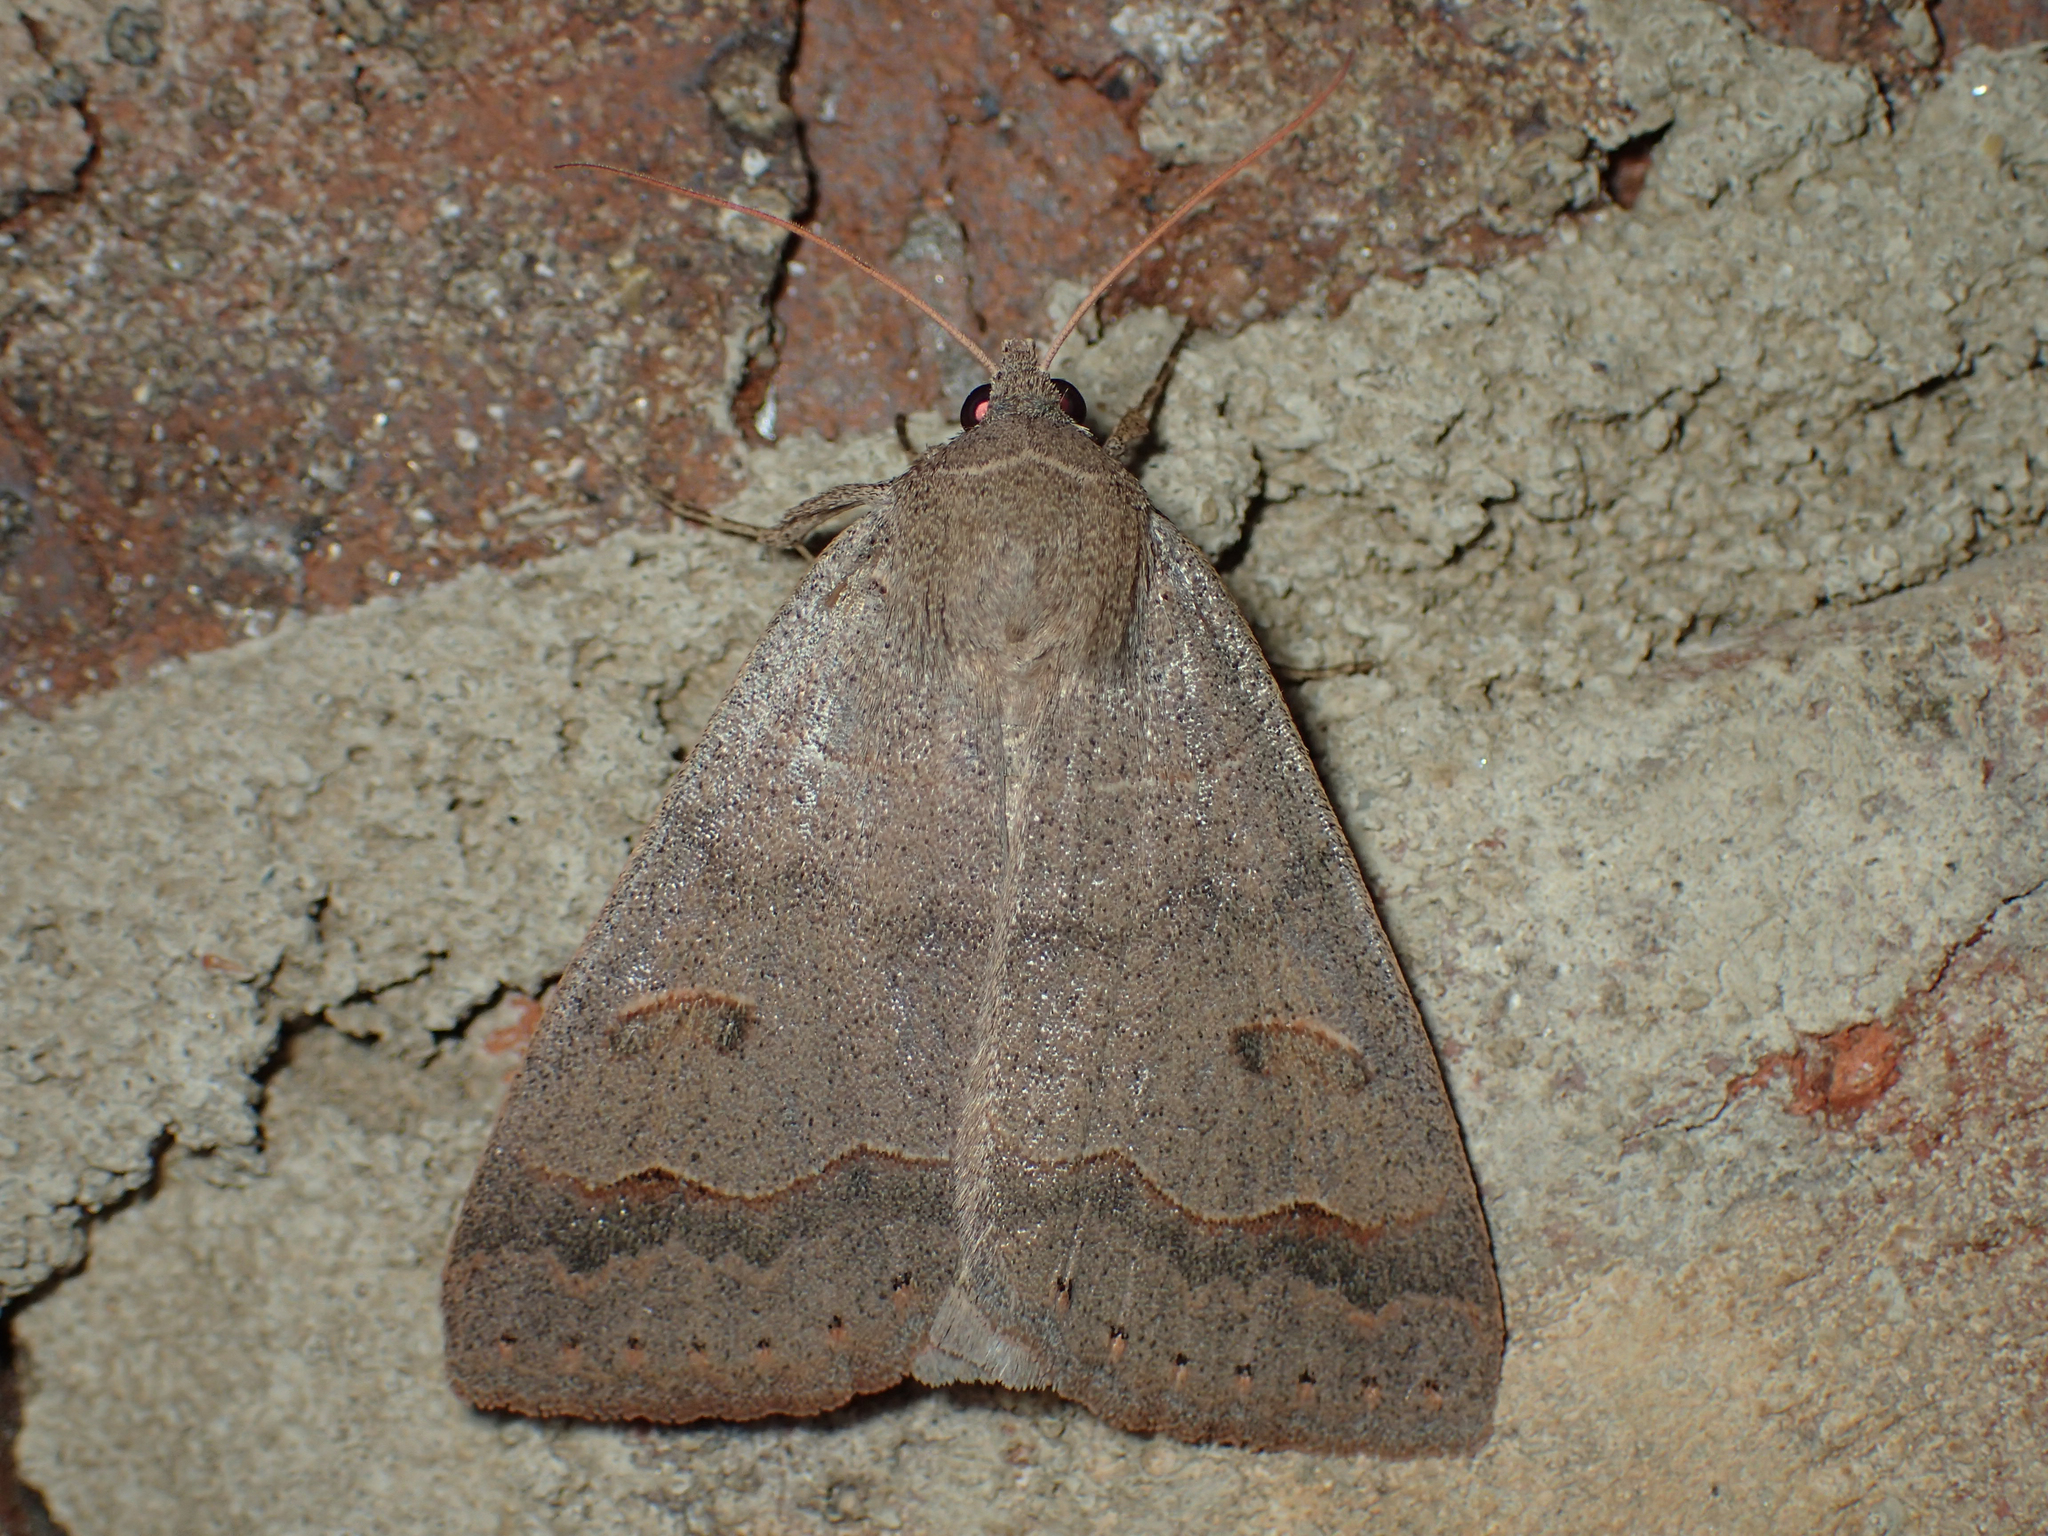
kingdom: Animalia
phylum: Arthropoda
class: Insecta
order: Lepidoptera
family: Erebidae
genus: Phoberia
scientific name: Phoberia atomaris
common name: Common oak moth
